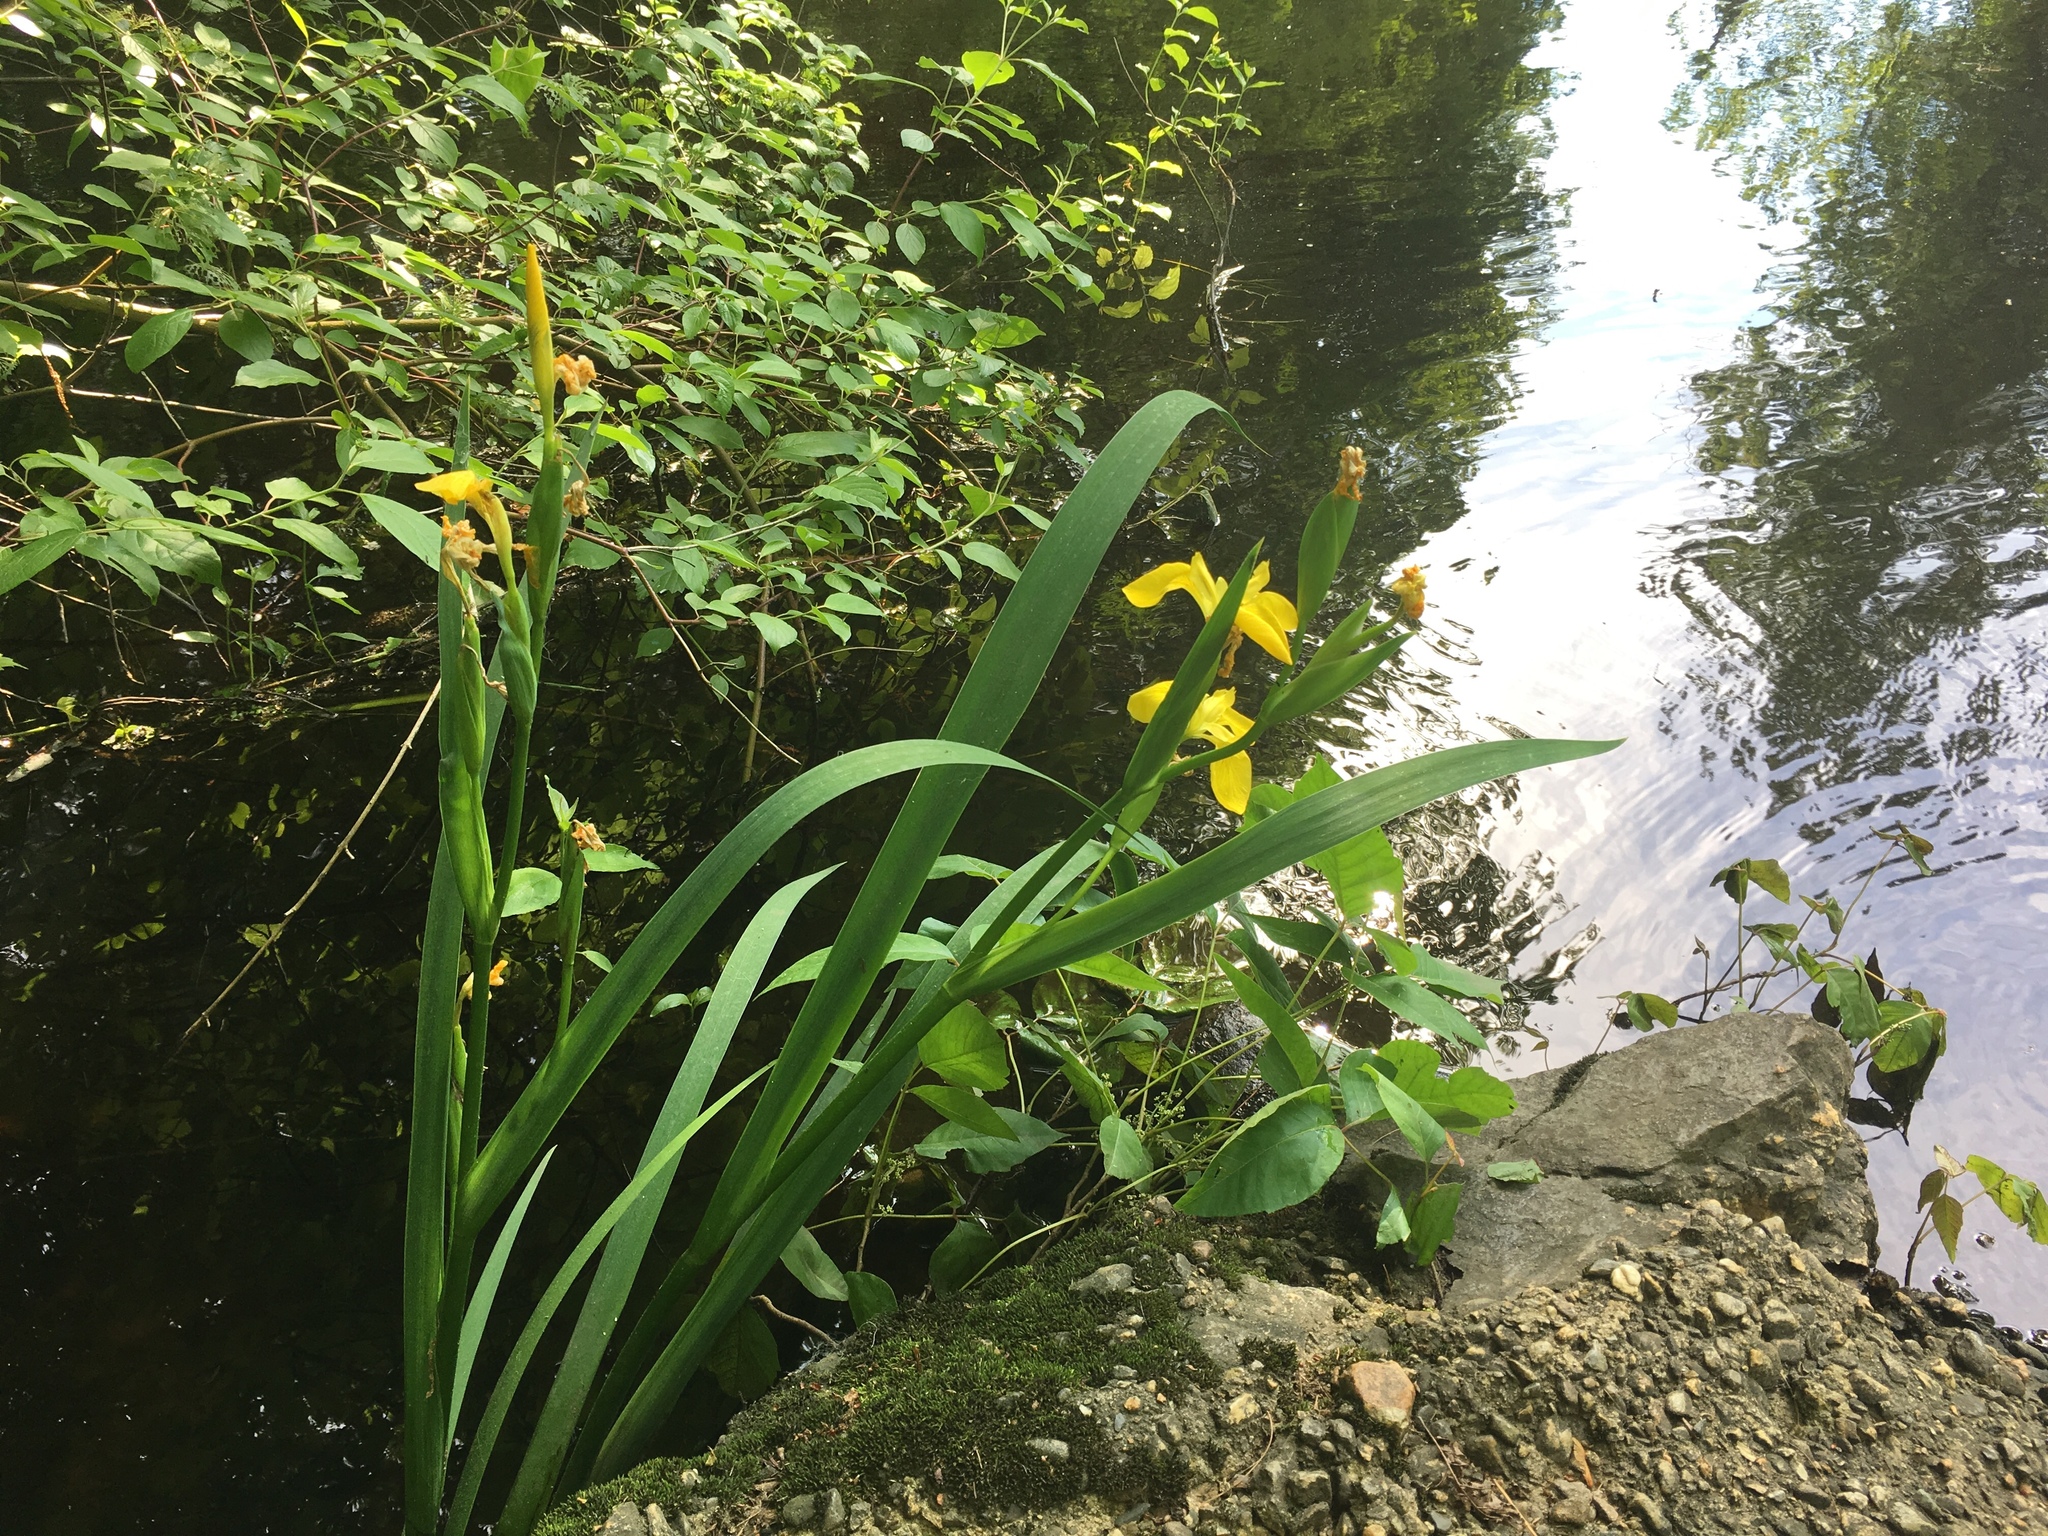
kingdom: Plantae
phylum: Tracheophyta
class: Liliopsida
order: Asparagales
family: Iridaceae
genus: Iris
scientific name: Iris pseudacorus
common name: Yellow flag
